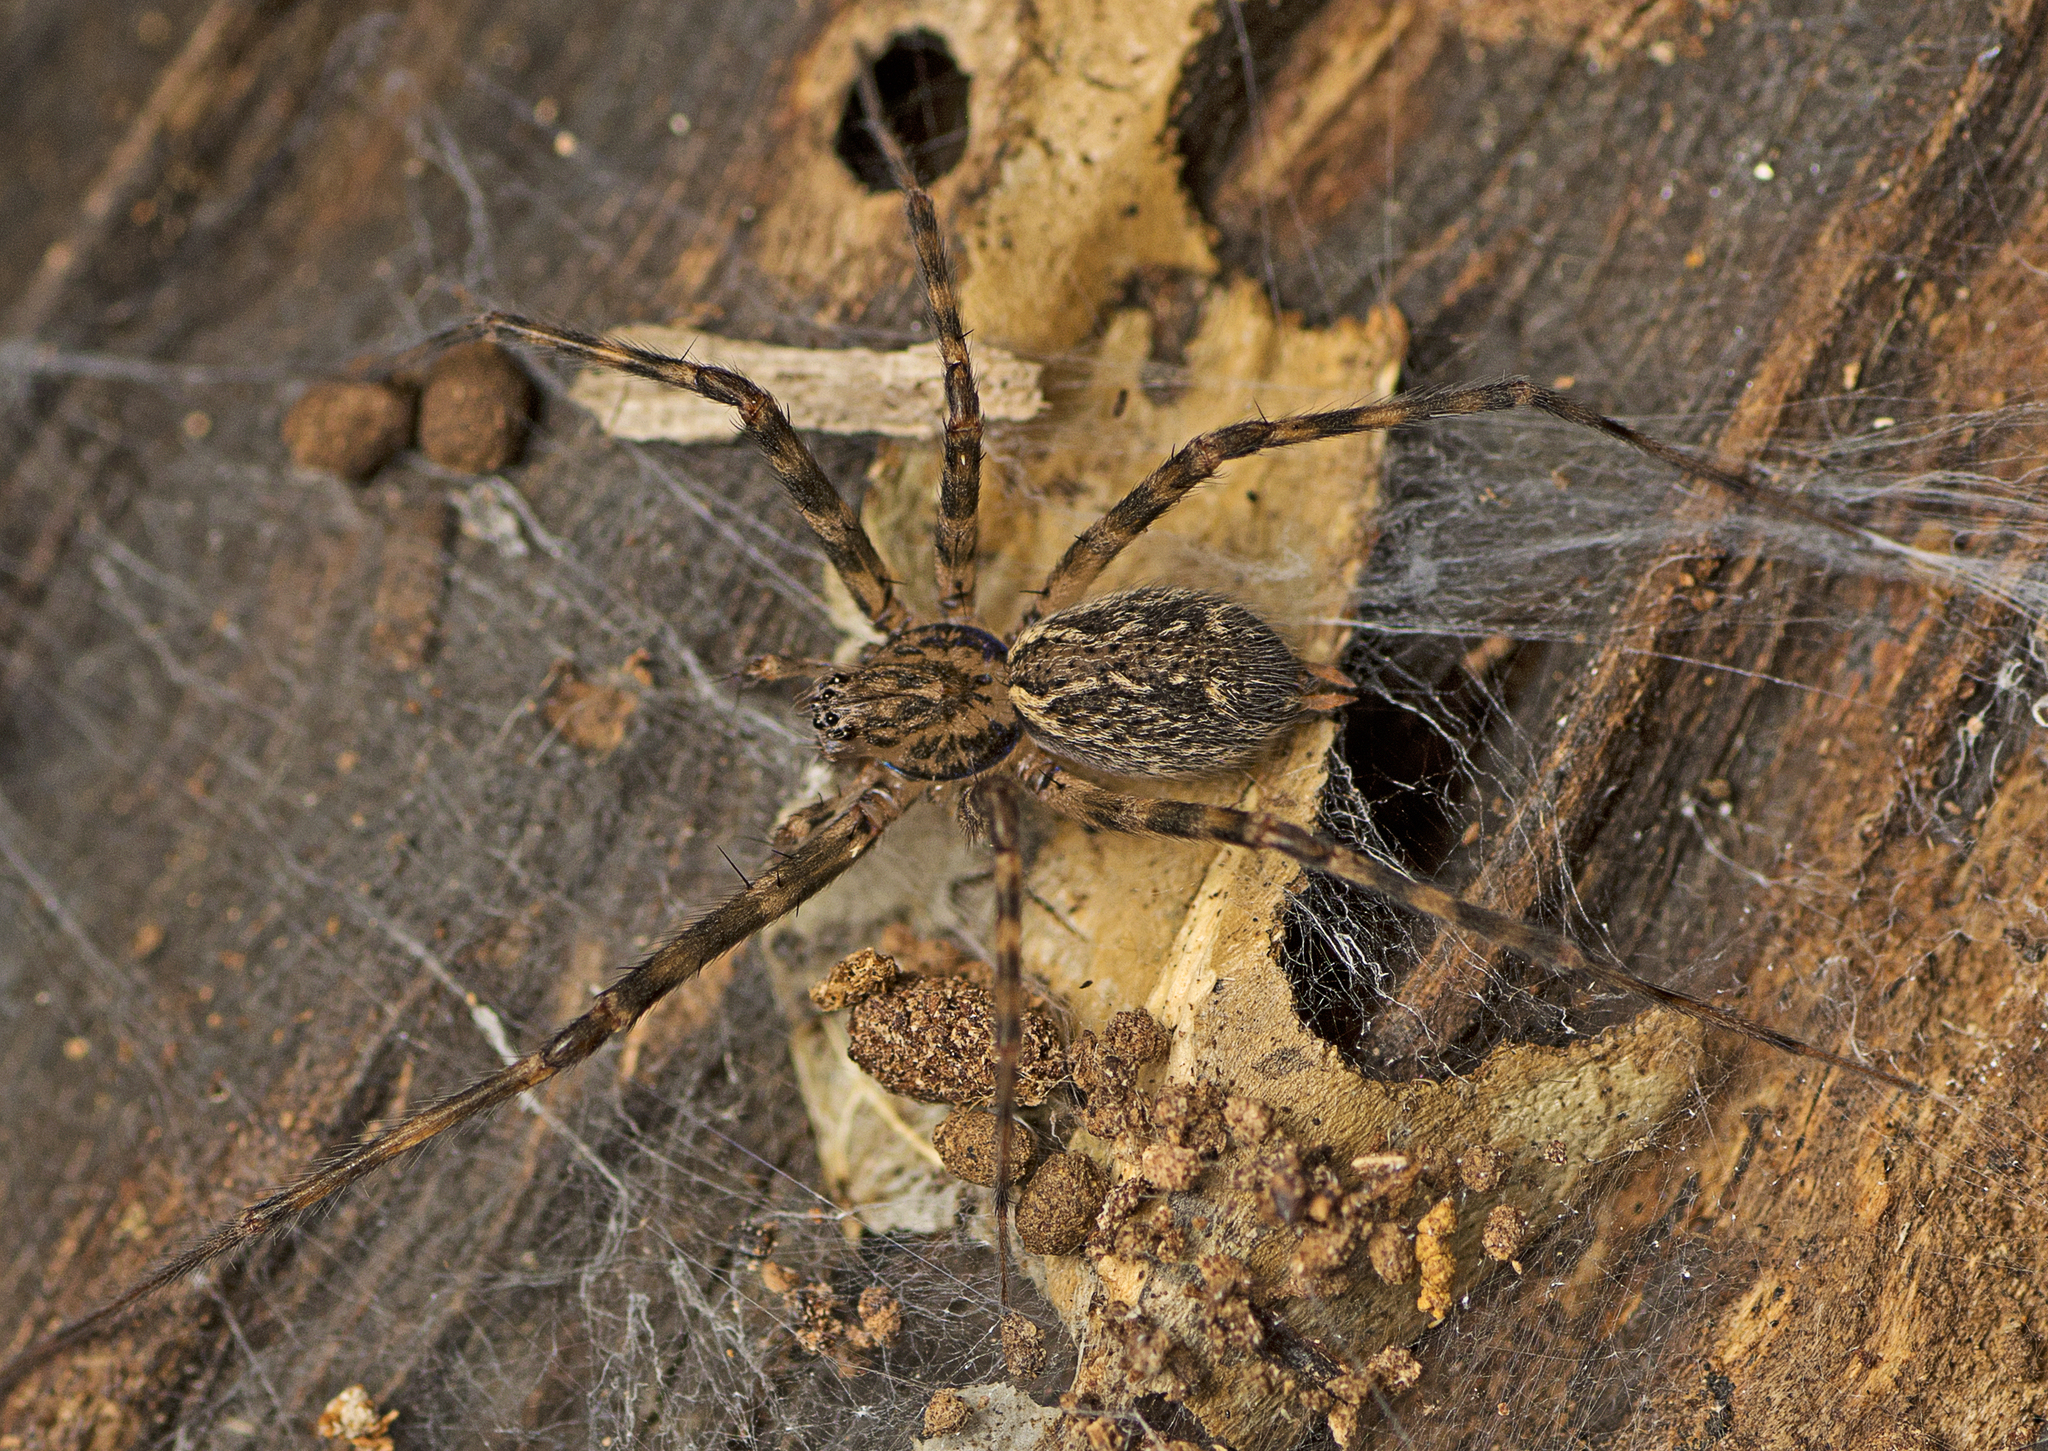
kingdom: Animalia
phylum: Arthropoda
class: Arachnida
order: Araneae
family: Stiphidiidae
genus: Stiphidion
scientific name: Stiphidion facetum
